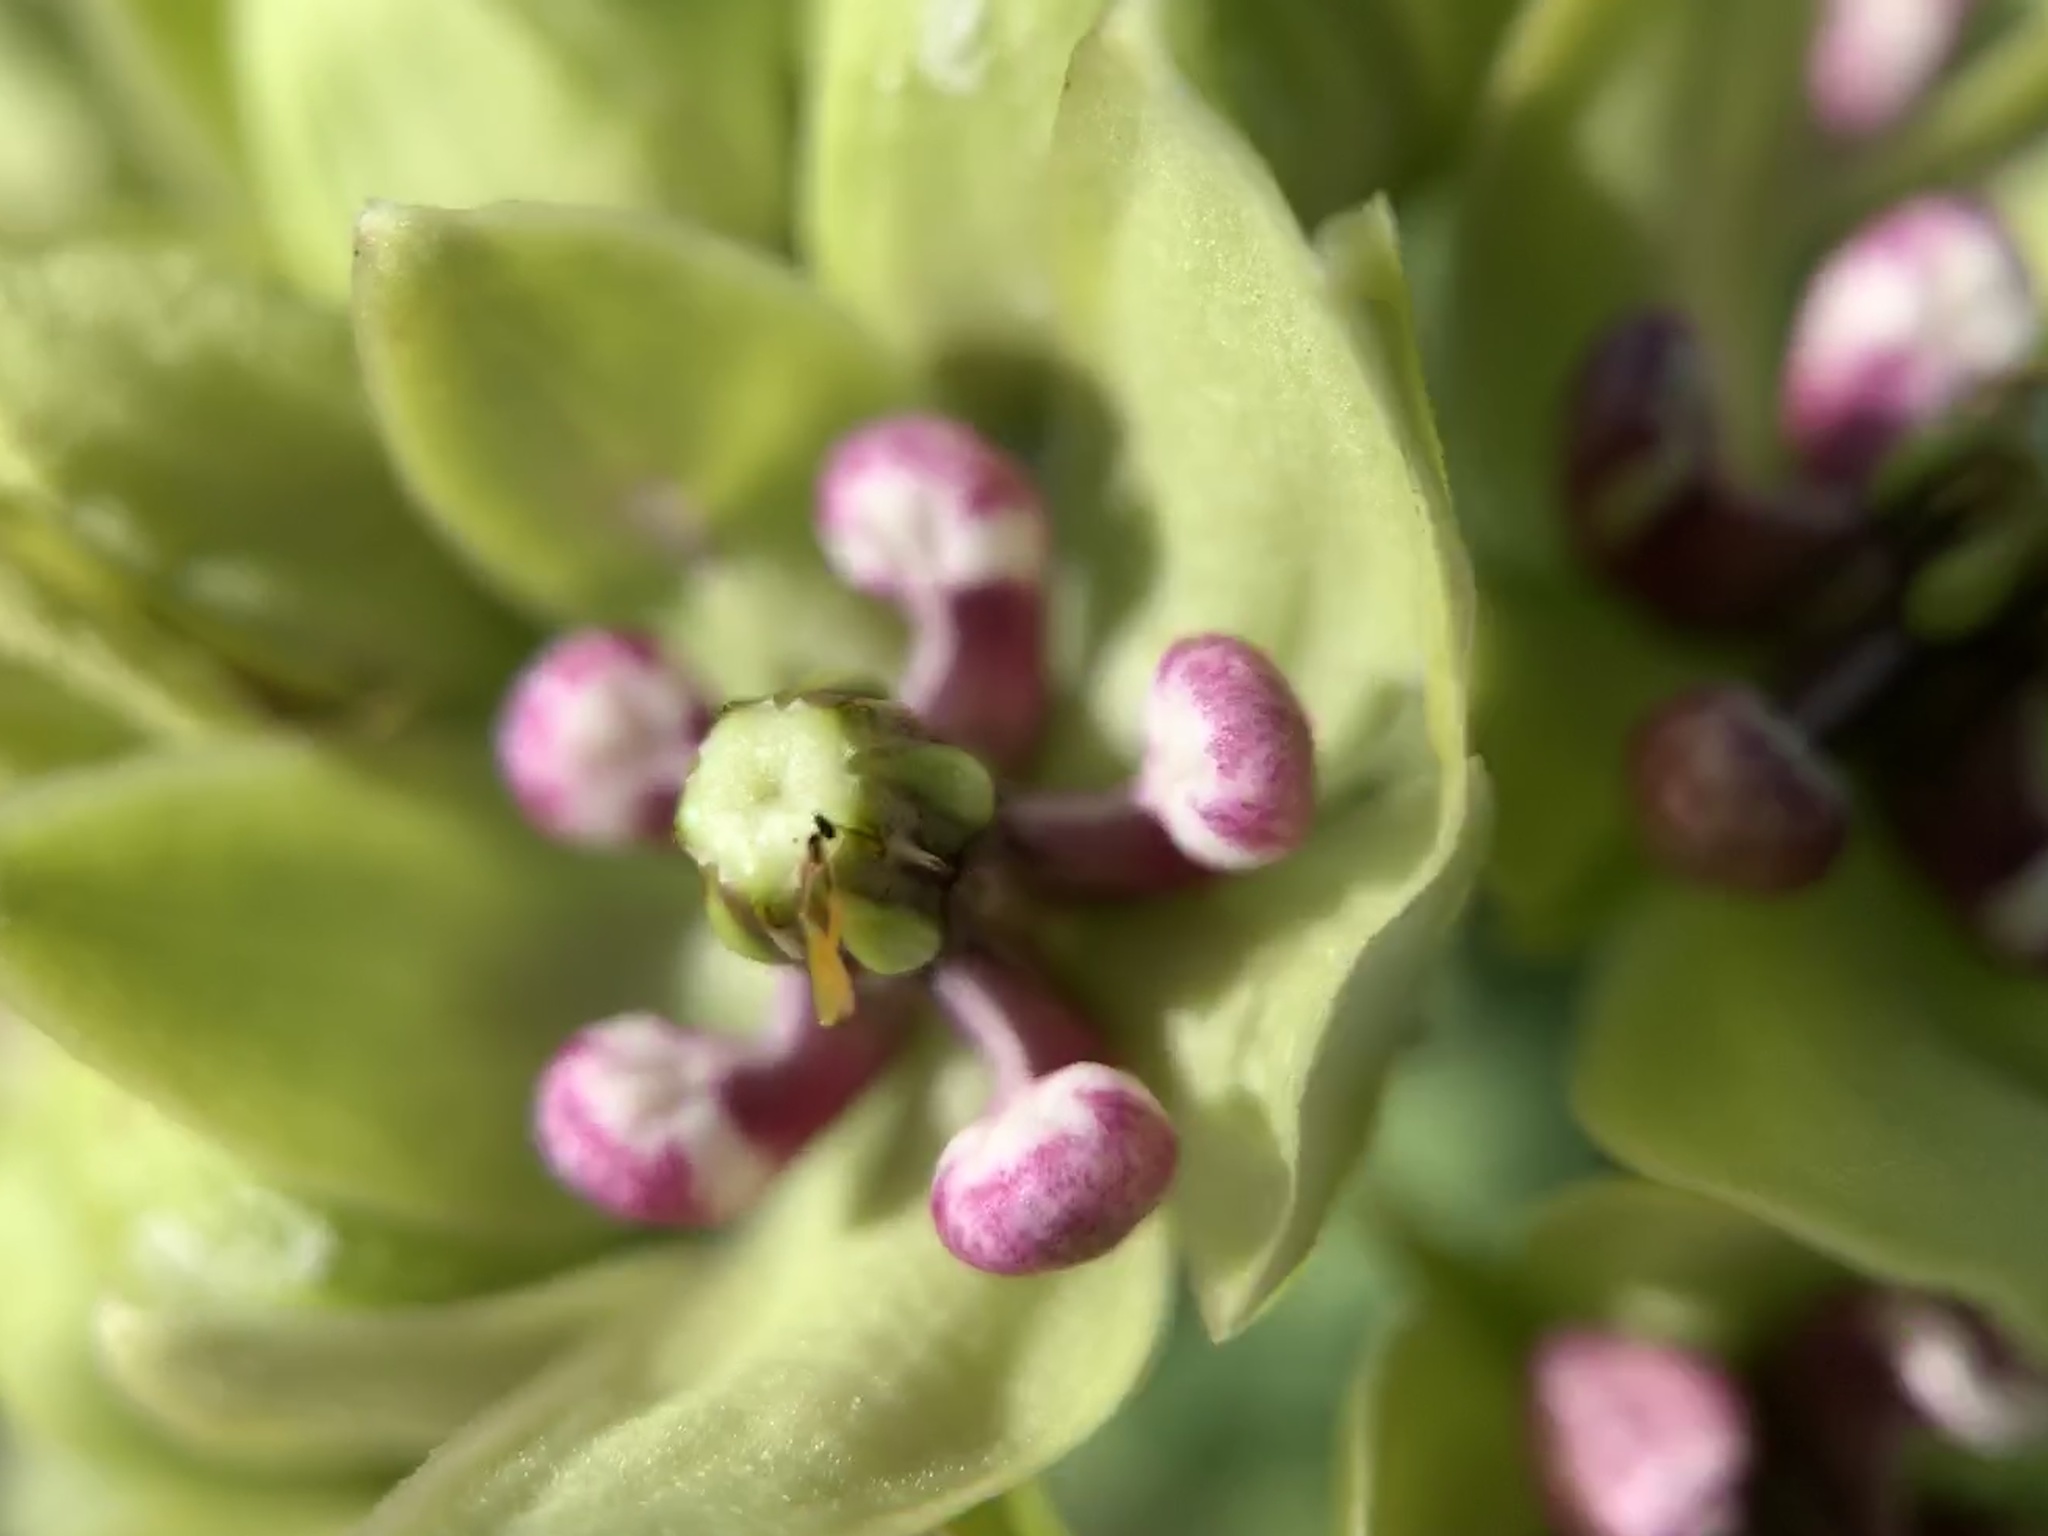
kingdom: Plantae
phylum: Tracheophyta
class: Magnoliopsida
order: Gentianales
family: Apocynaceae
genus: Asclepias
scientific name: Asclepias viridis
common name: Antelope-horns
